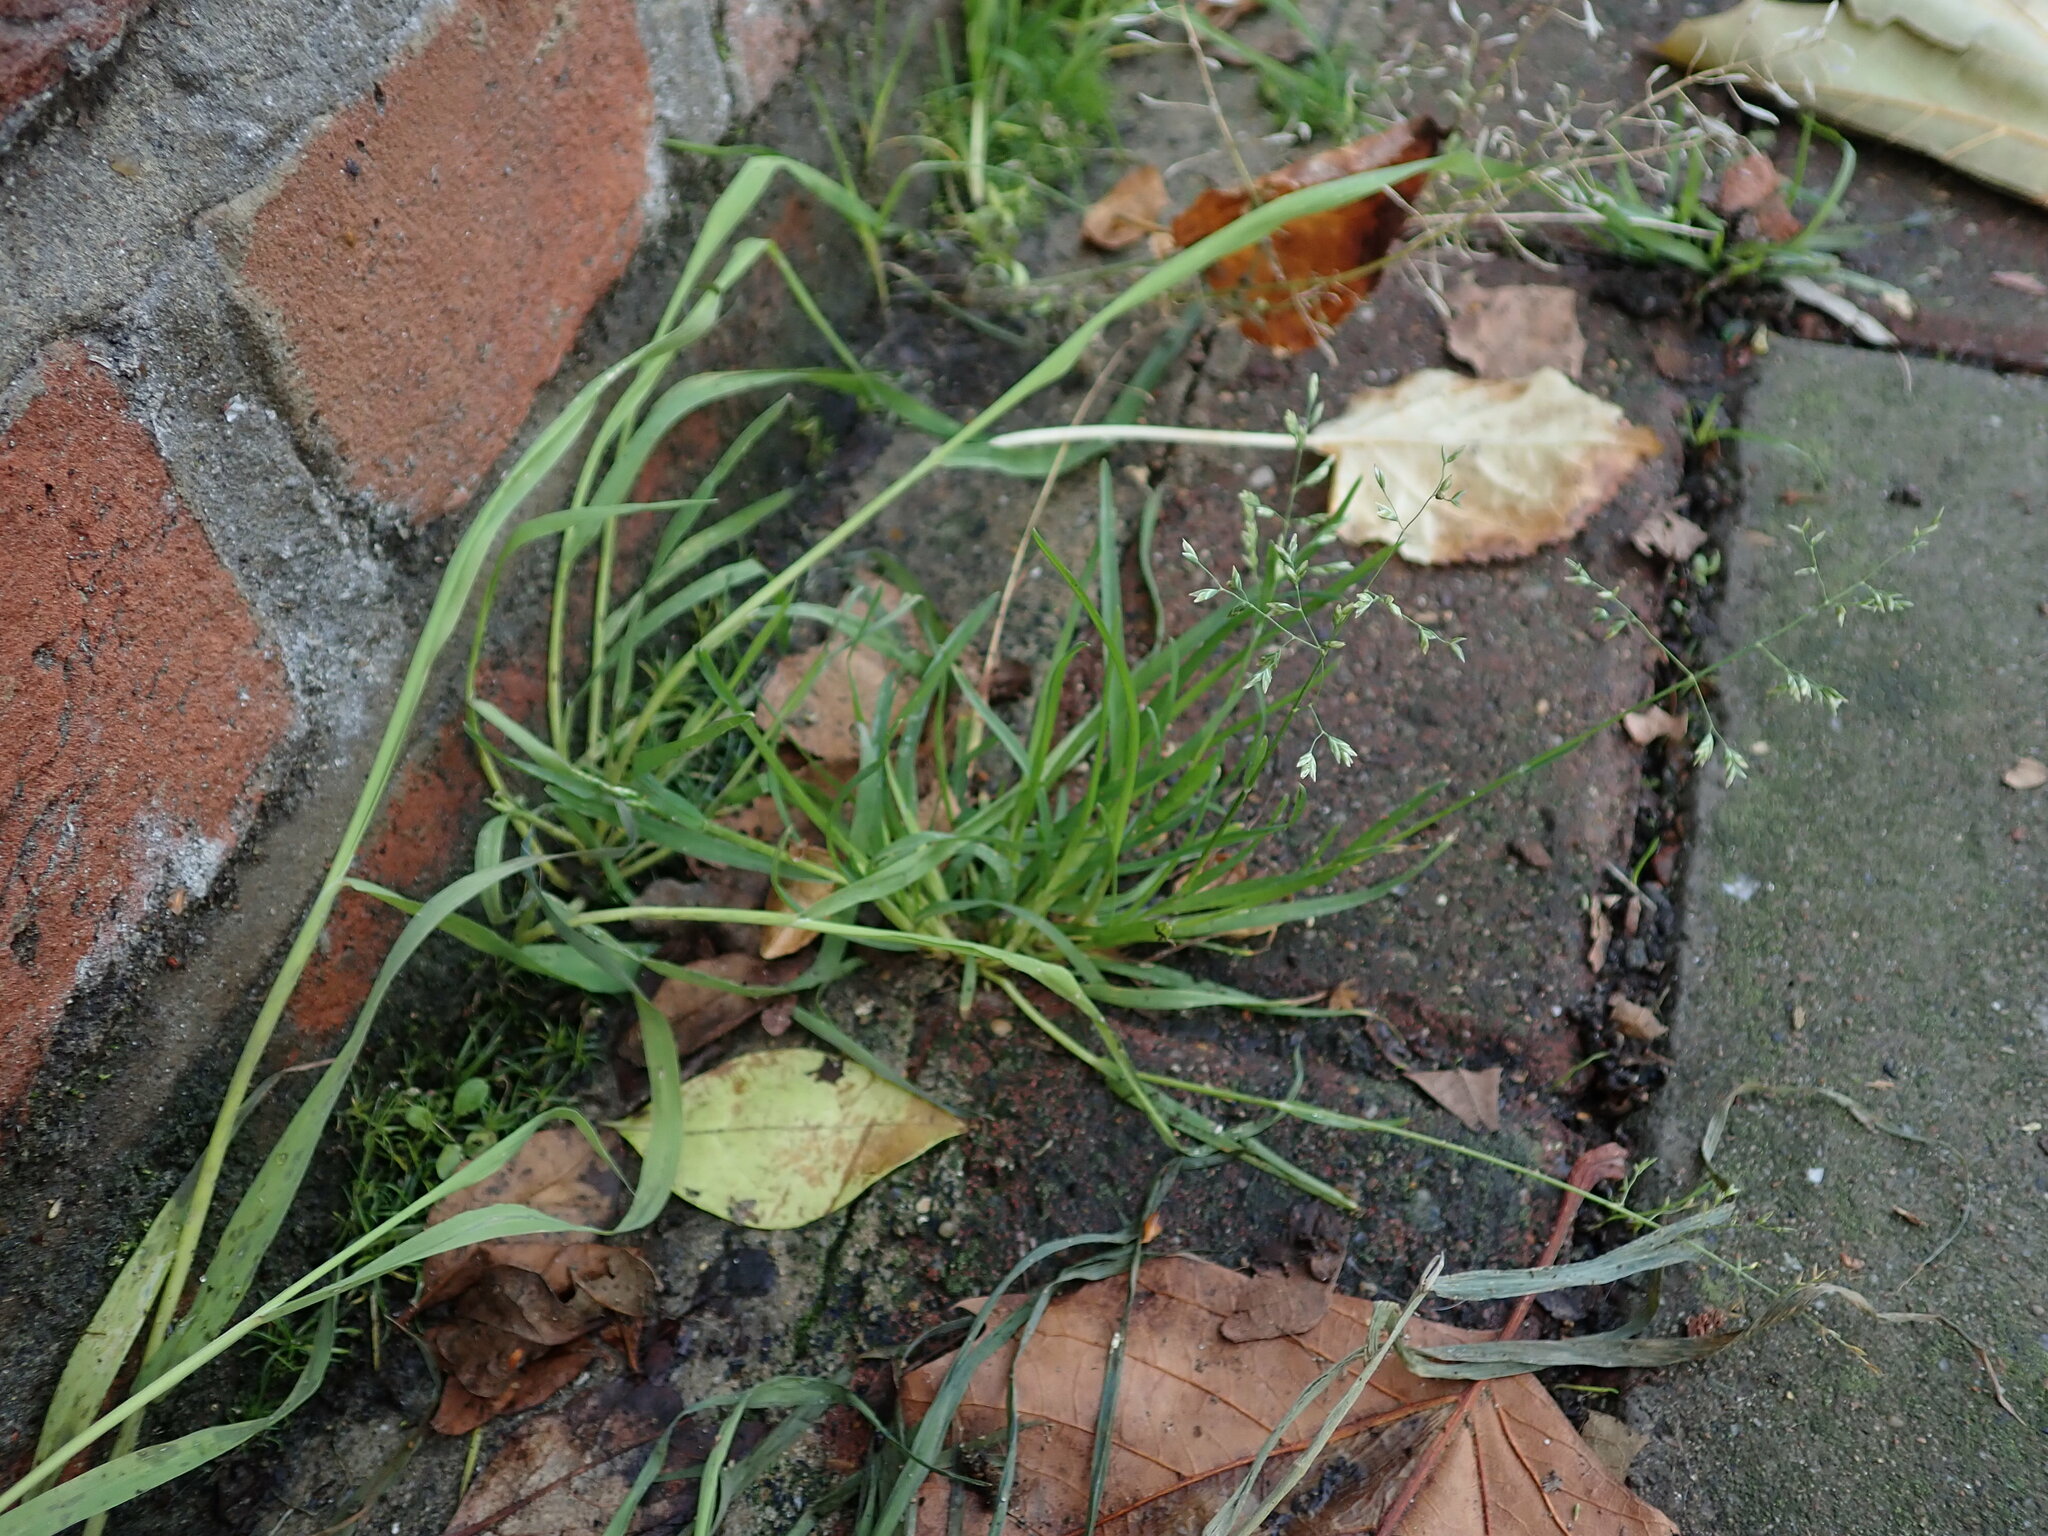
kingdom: Plantae
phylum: Tracheophyta
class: Liliopsida
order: Poales
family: Poaceae
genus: Poa
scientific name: Poa annua
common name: Annual bluegrass
